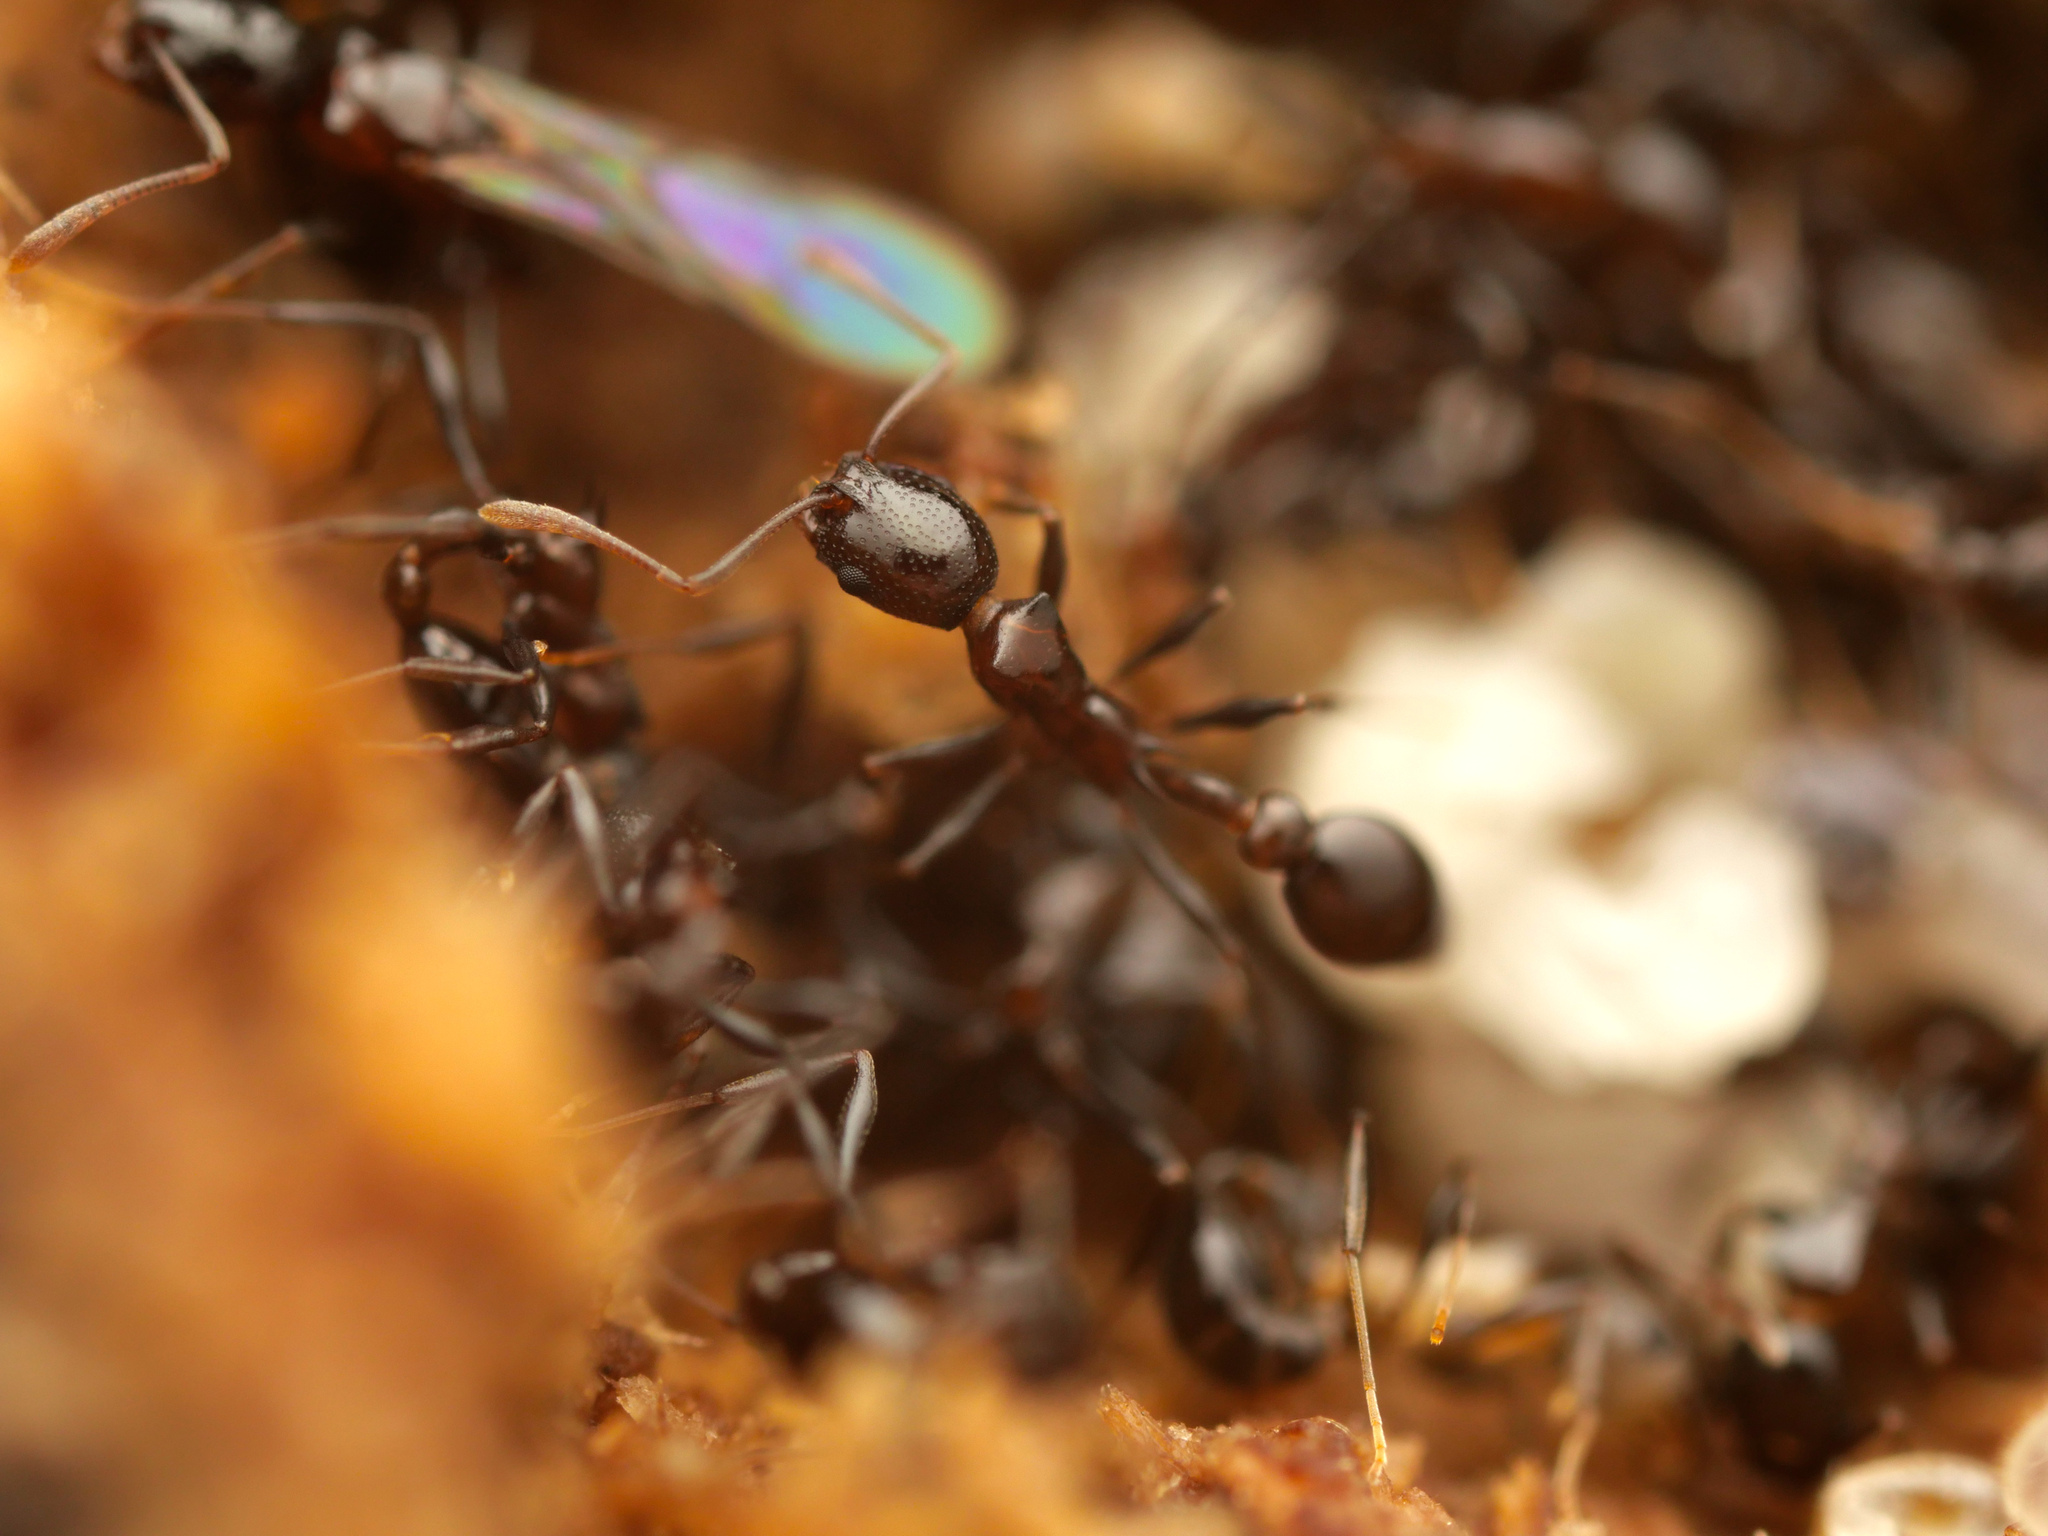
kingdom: Animalia
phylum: Arthropoda
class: Insecta
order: Hymenoptera
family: Formicidae
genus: Cardiocondyla
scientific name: Cardiocondyla paradoxa
